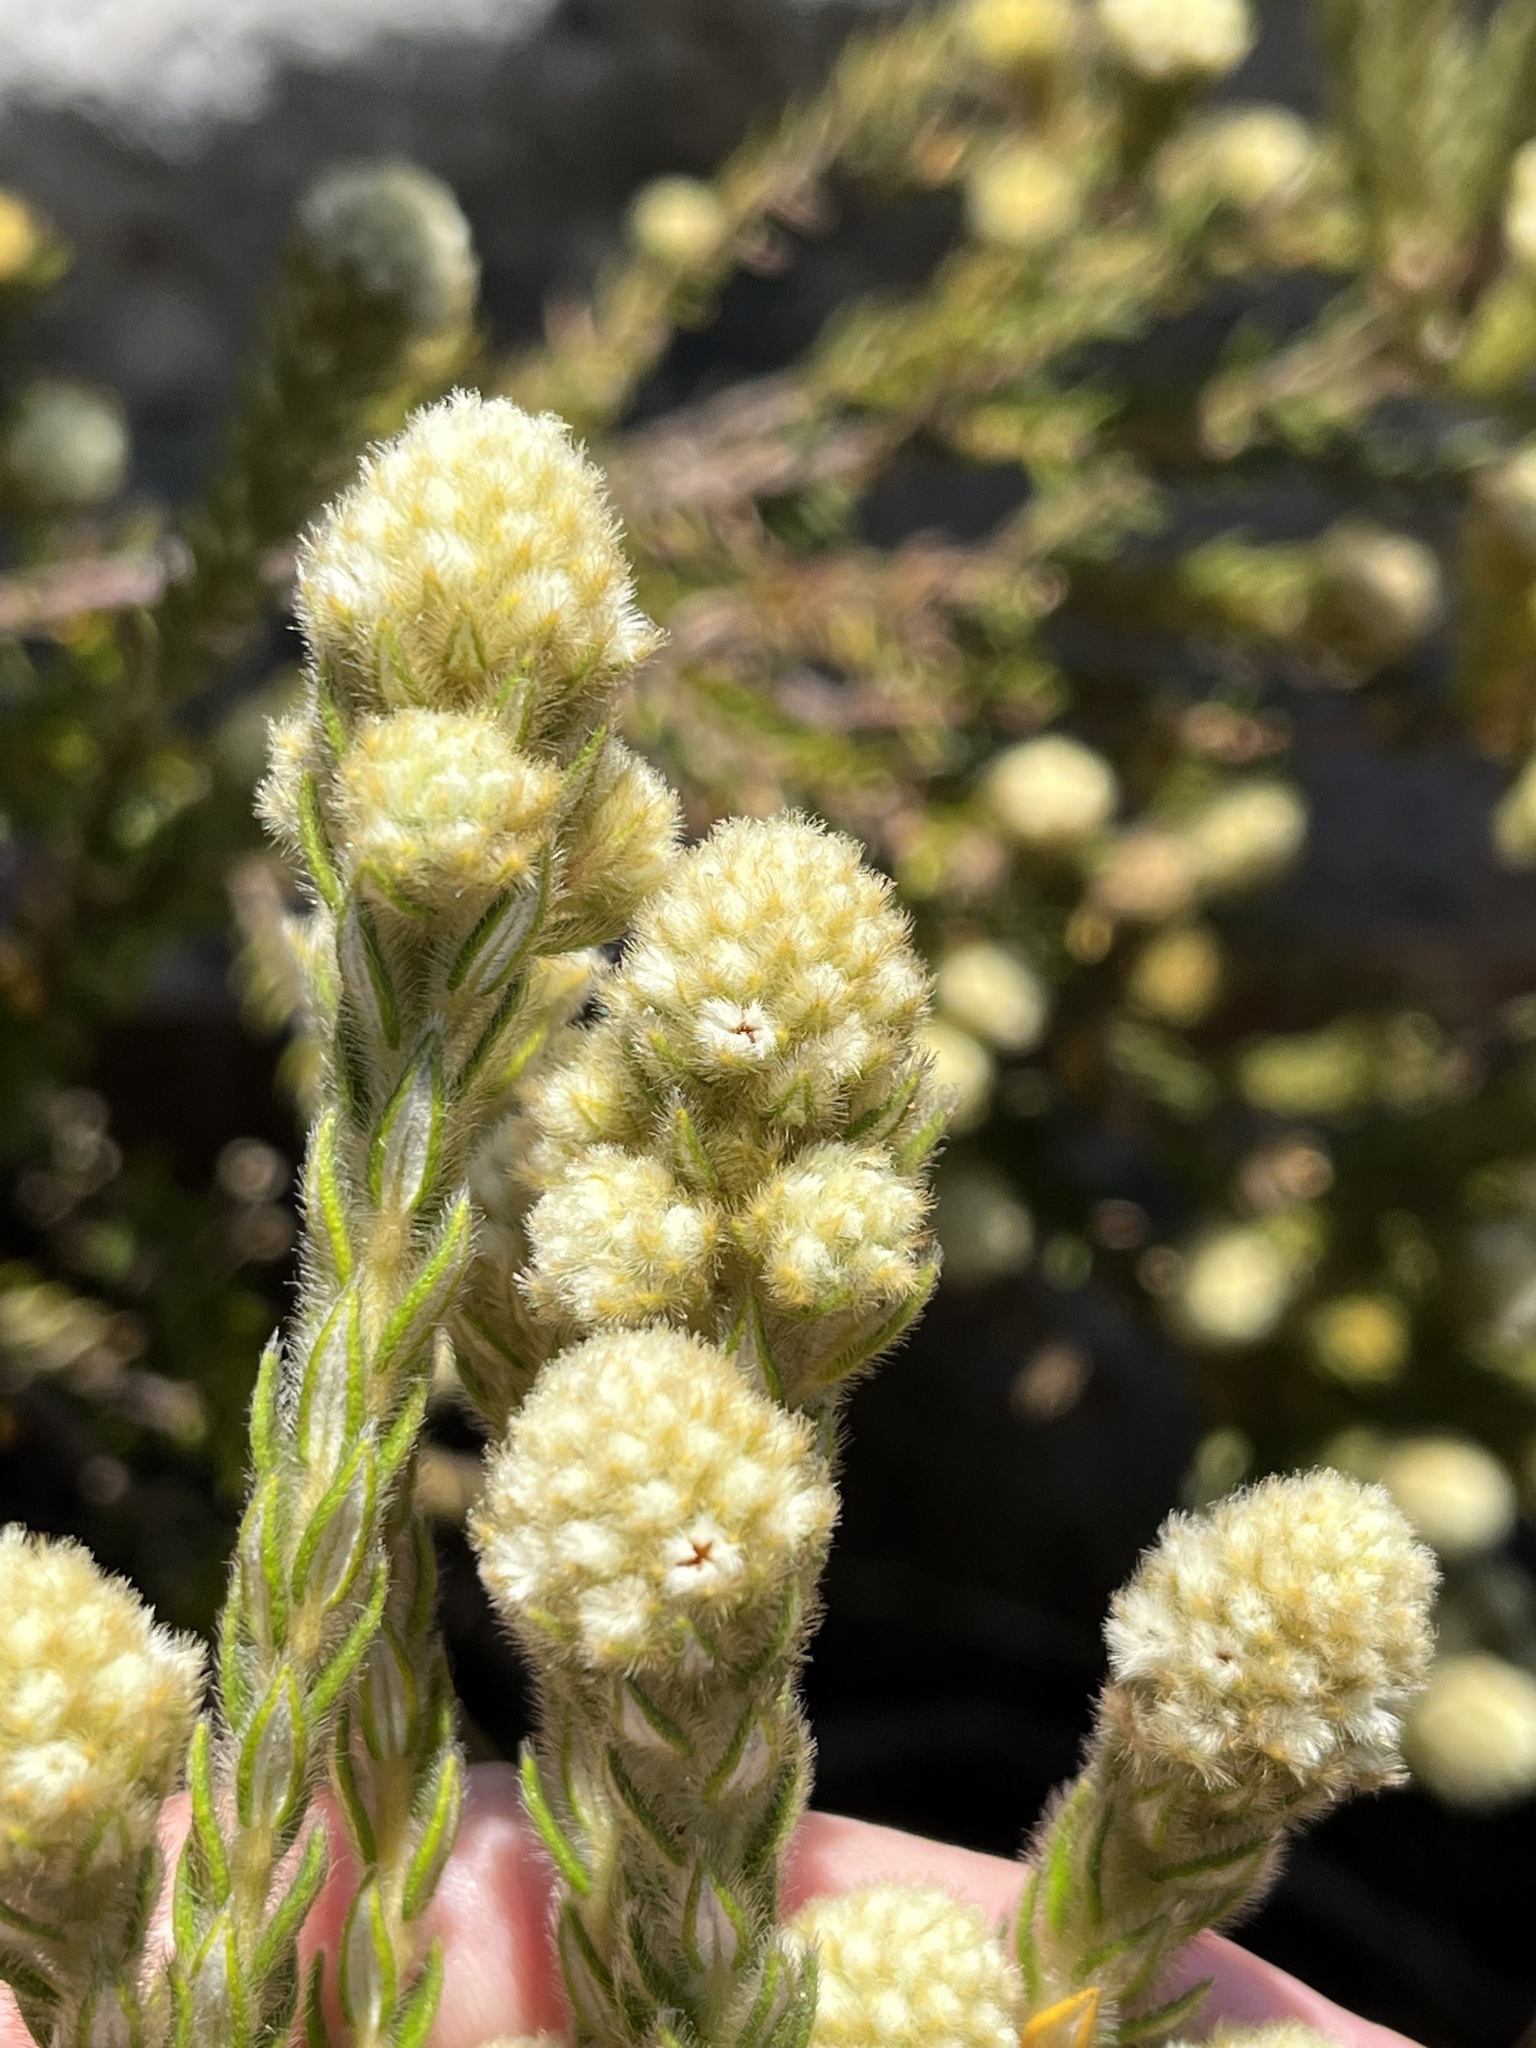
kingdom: Plantae
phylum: Tracheophyta
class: Magnoliopsida
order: Rosales
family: Rhamnaceae
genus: Phylica
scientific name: Phylica strigosa
